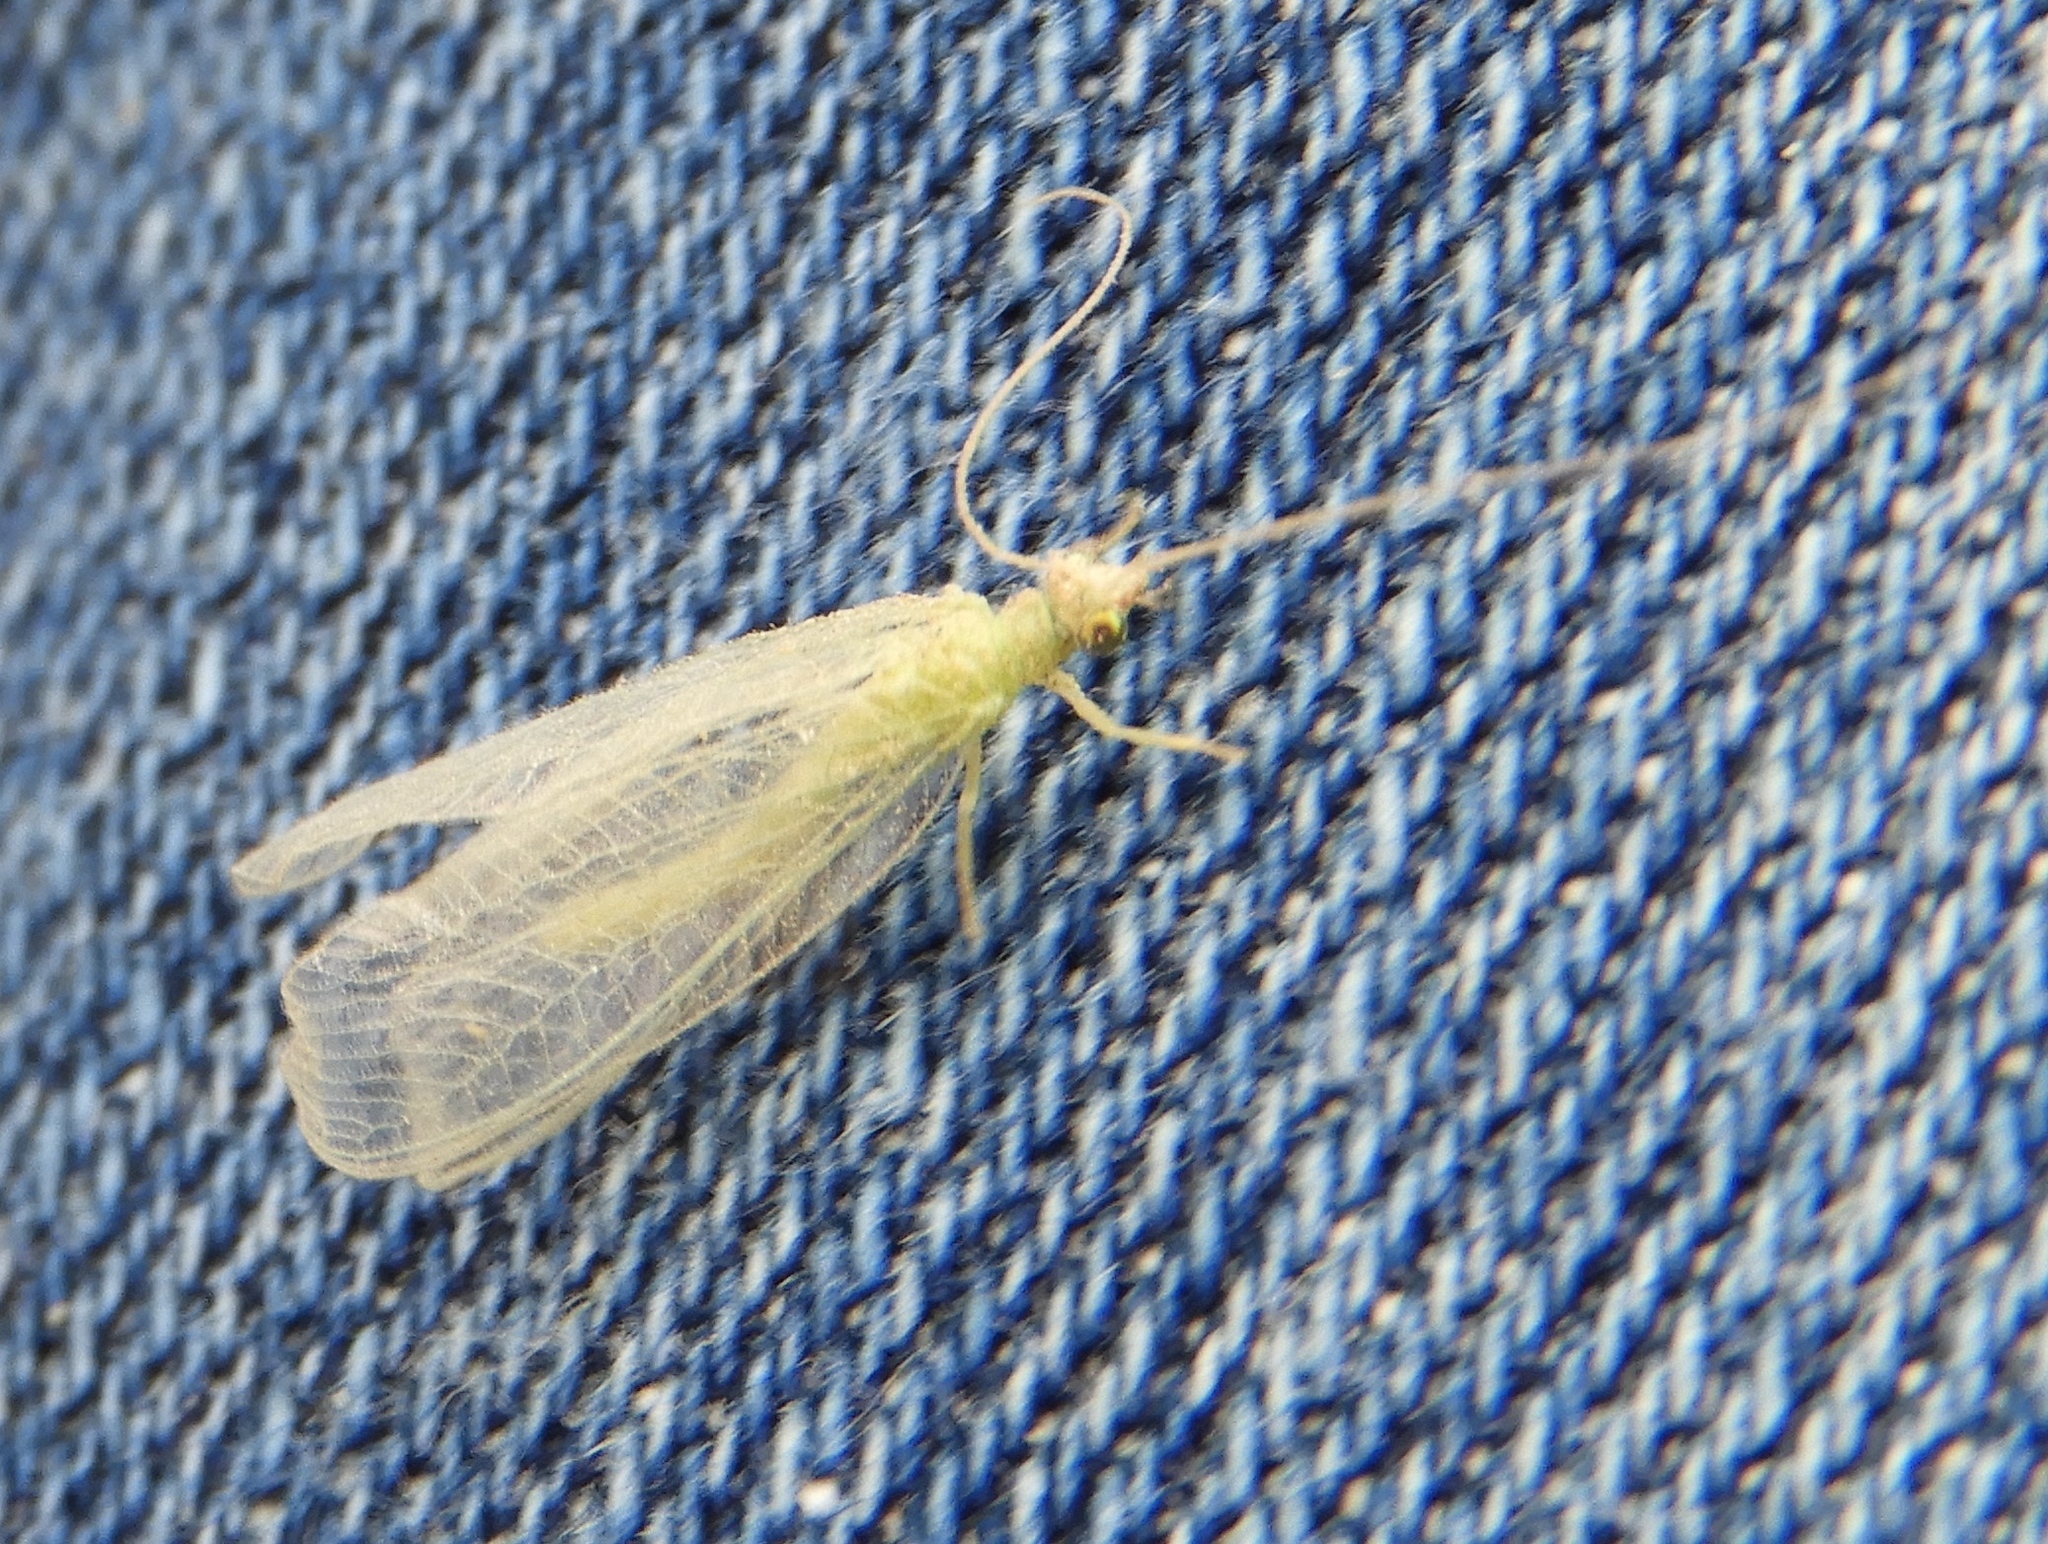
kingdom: Animalia
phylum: Arthropoda
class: Insecta
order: Neuroptera
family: Chrysopidae
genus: Chrysoperla
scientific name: Chrysoperla
